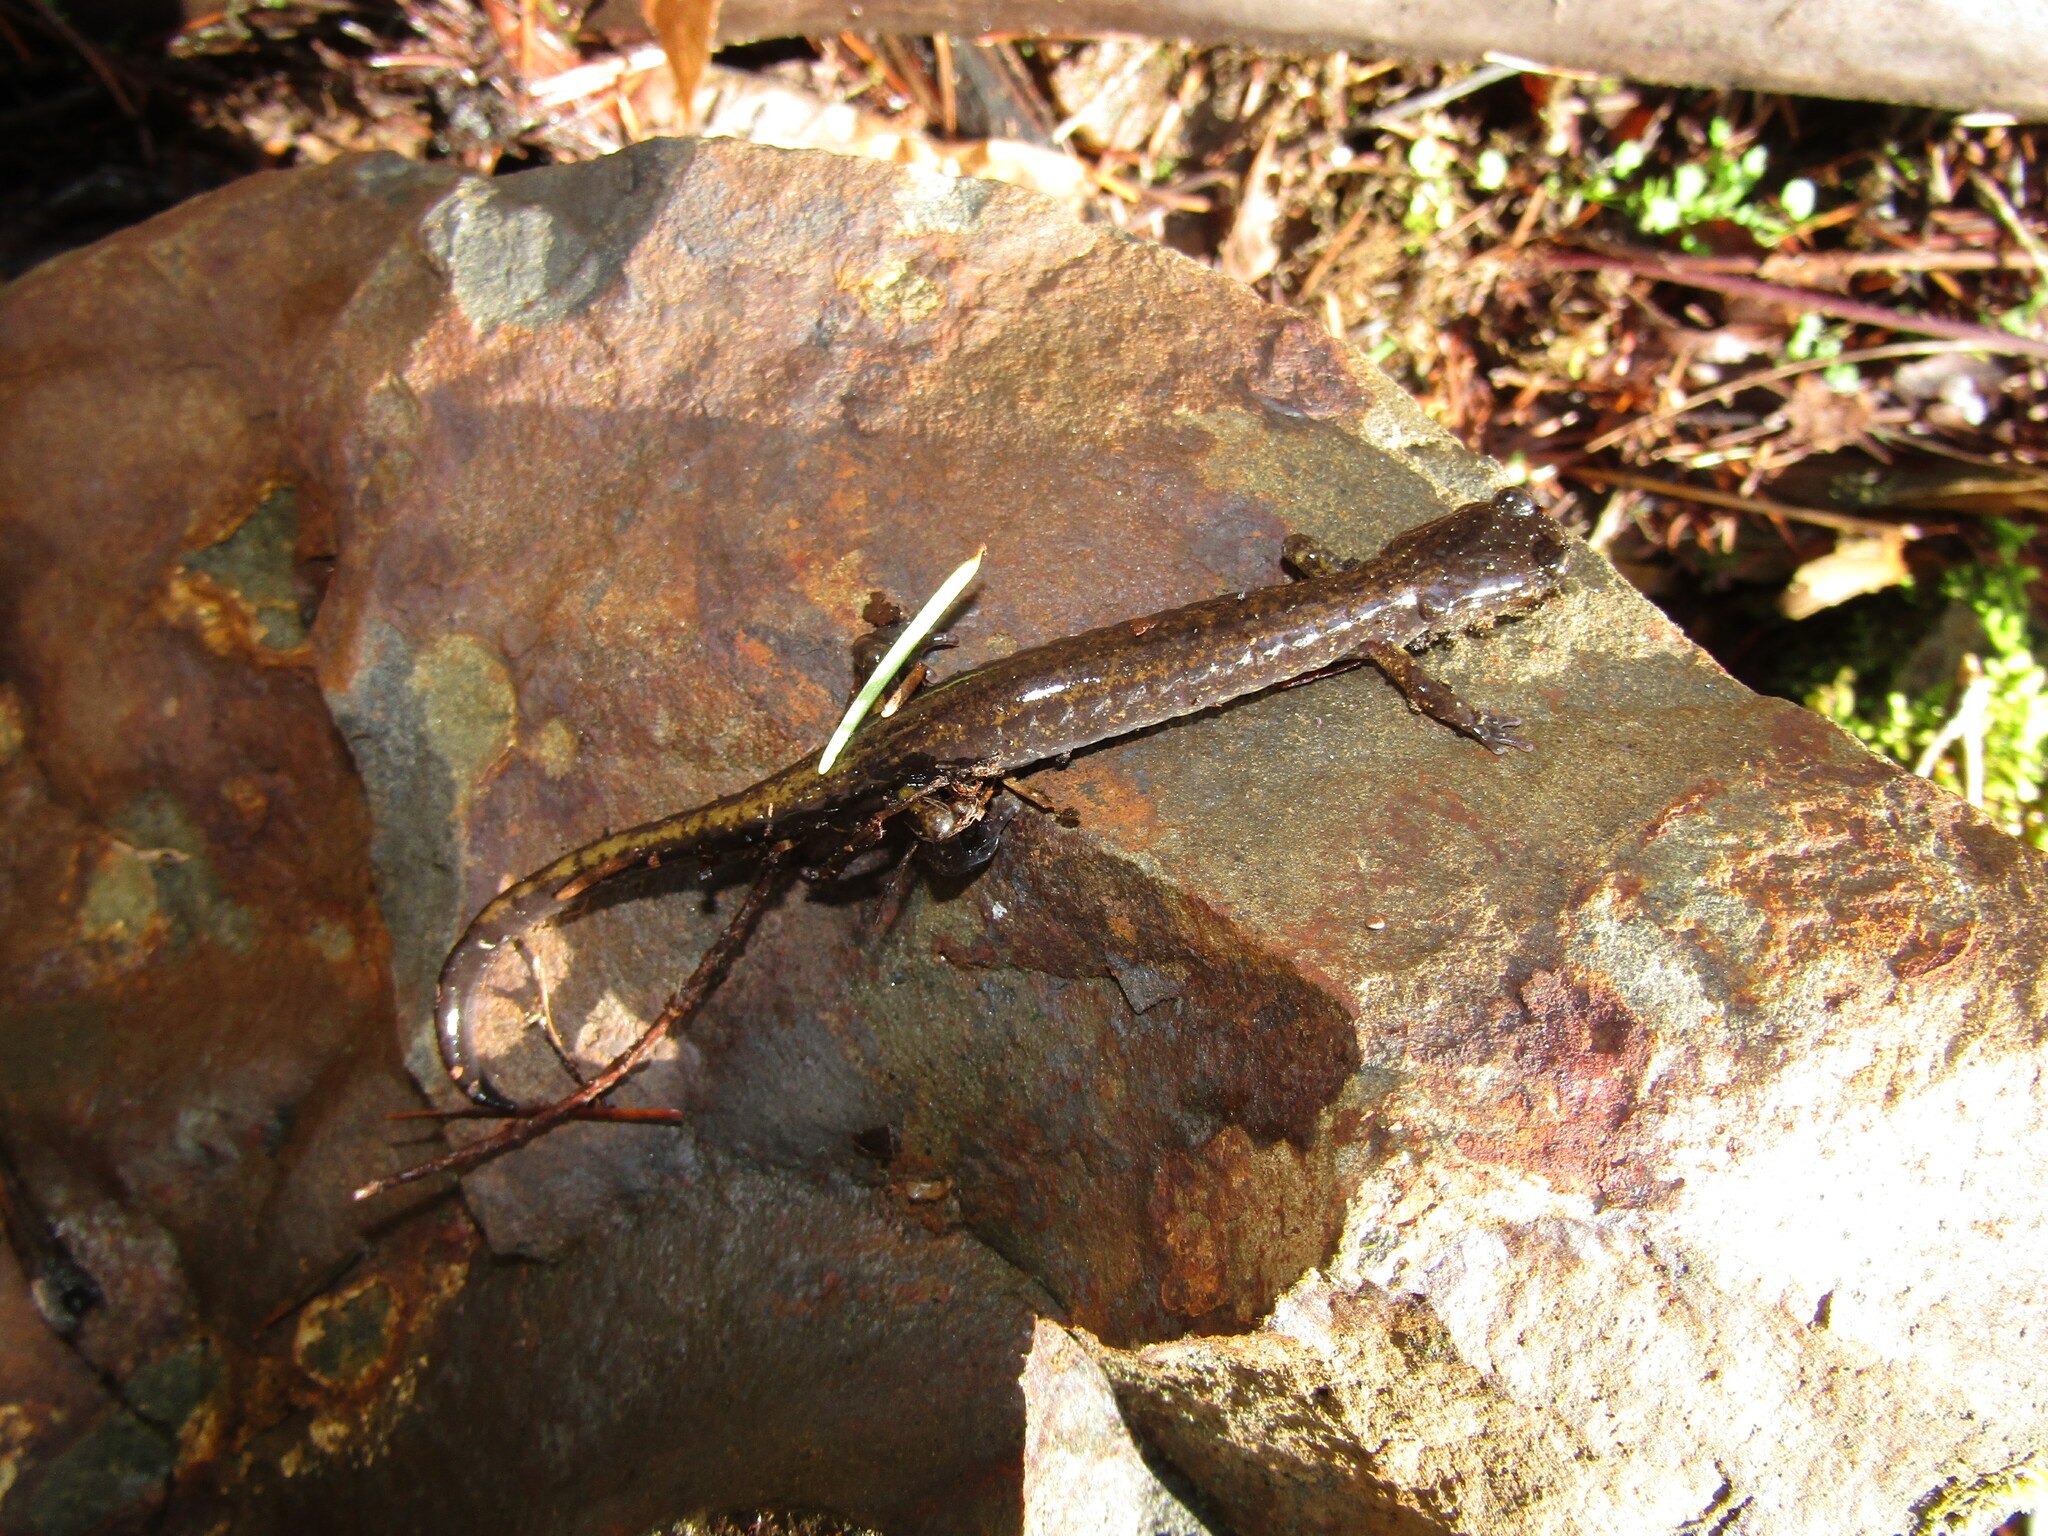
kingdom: Animalia
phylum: Chordata
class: Amphibia
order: Caudata
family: Plethodontidae
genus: Plethodon
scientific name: Plethodon dunni
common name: Dunn's salamander
